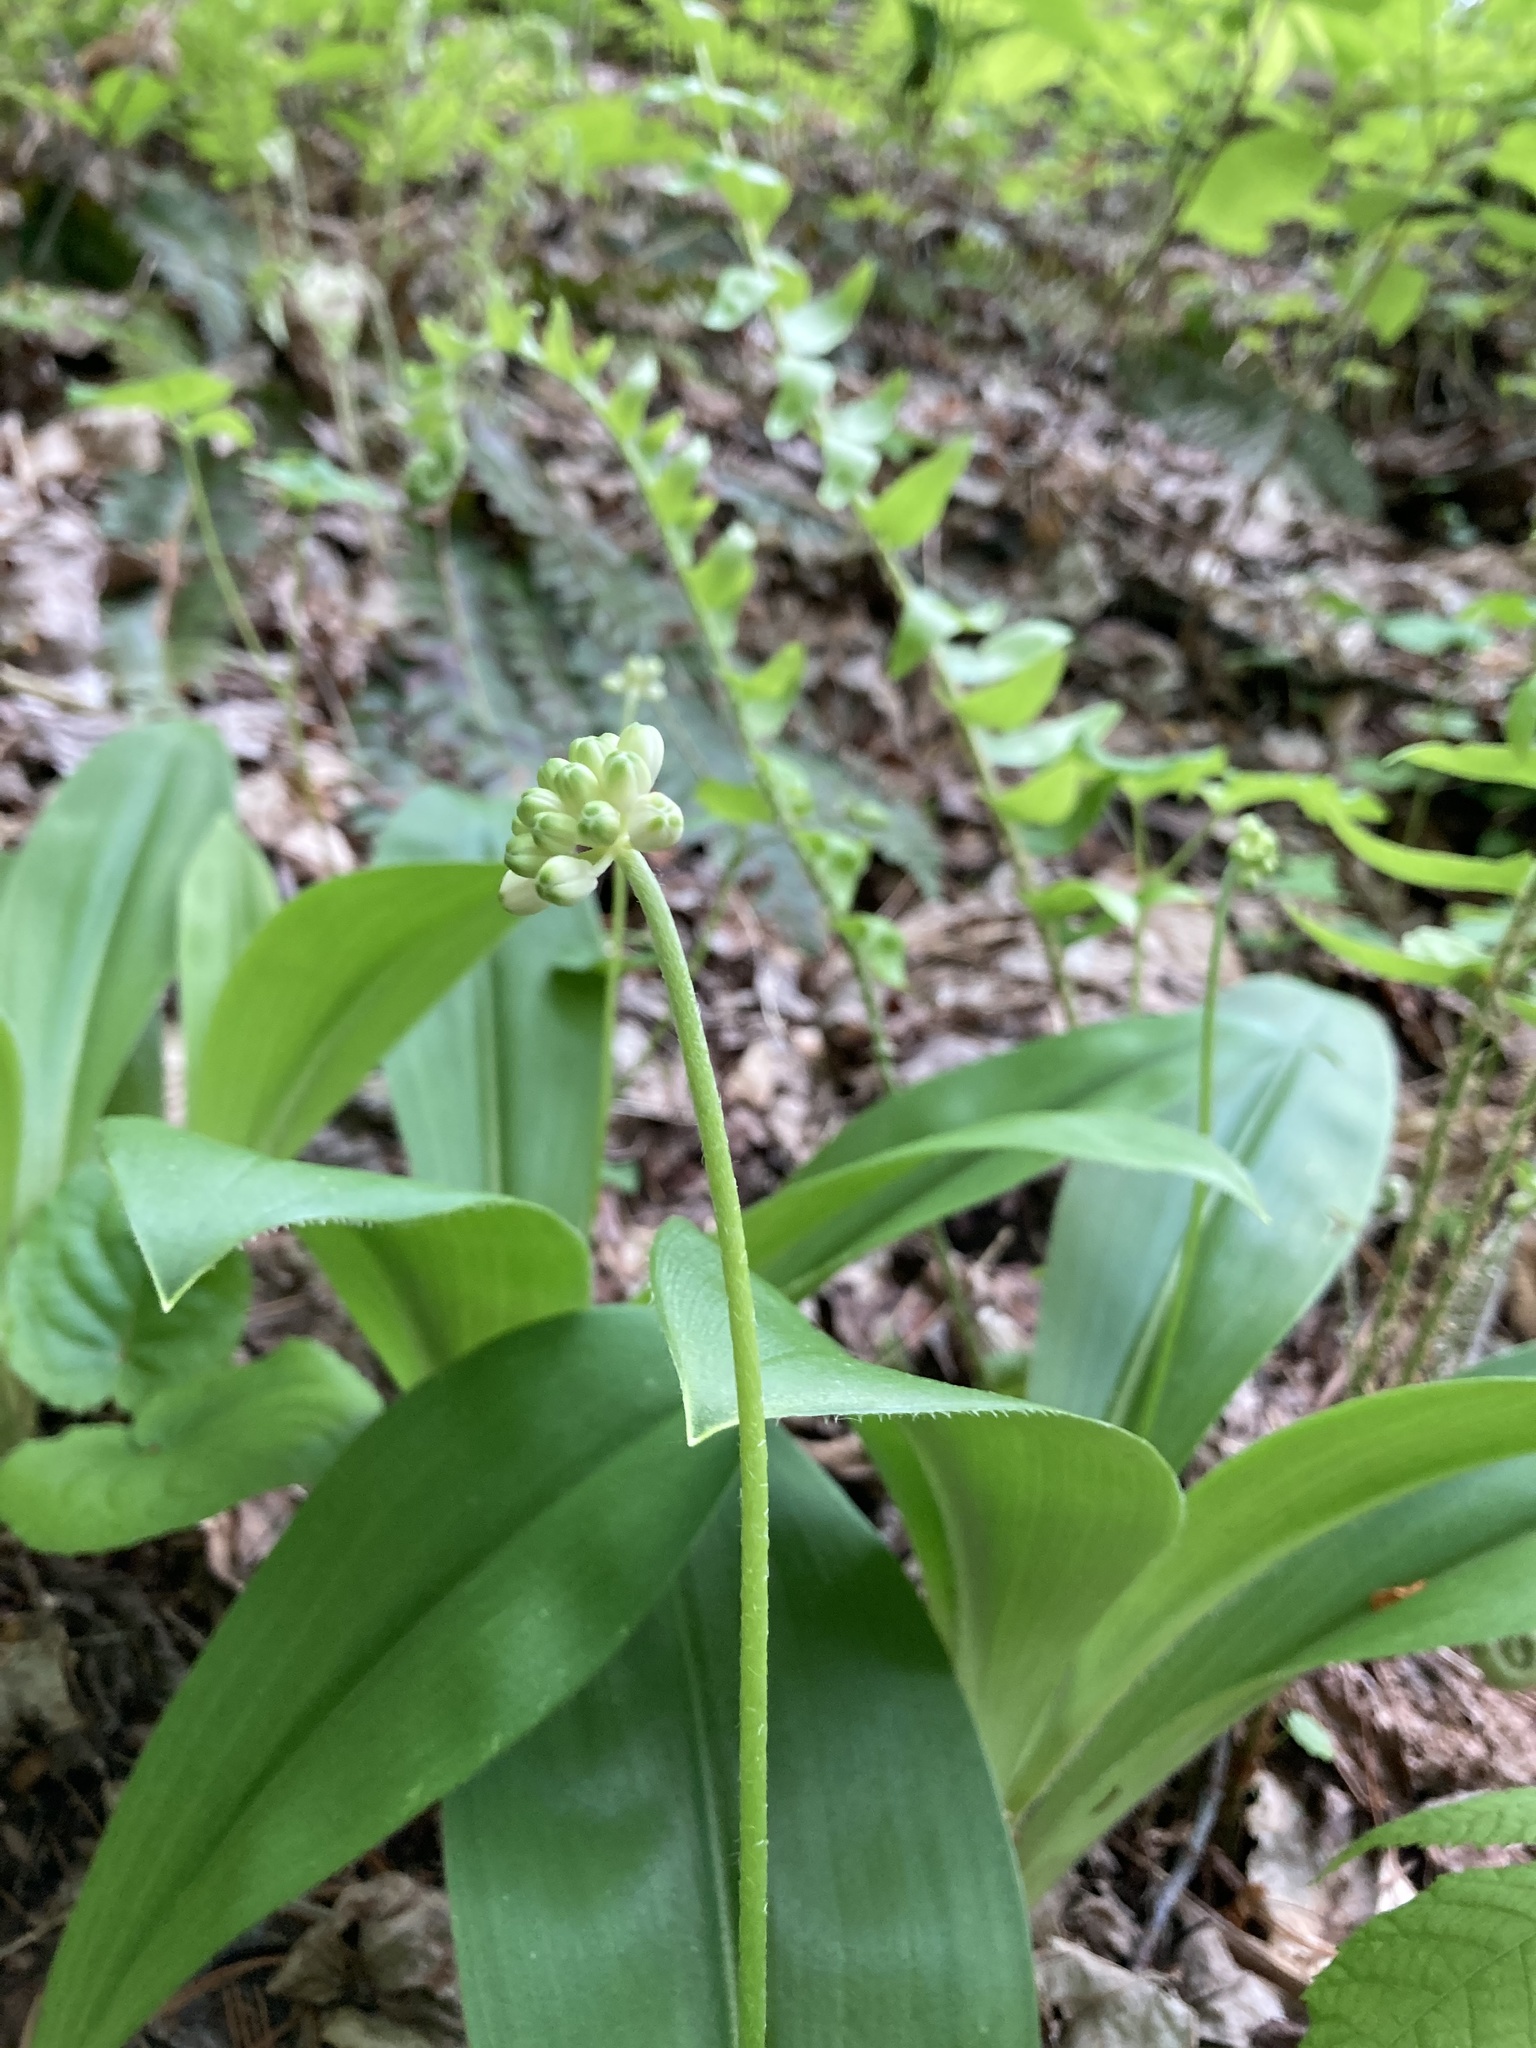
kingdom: Plantae
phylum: Tracheophyta
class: Liliopsida
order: Liliales
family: Liliaceae
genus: Clintonia
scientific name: Clintonia umbellulata
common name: Speckle wood-lily
